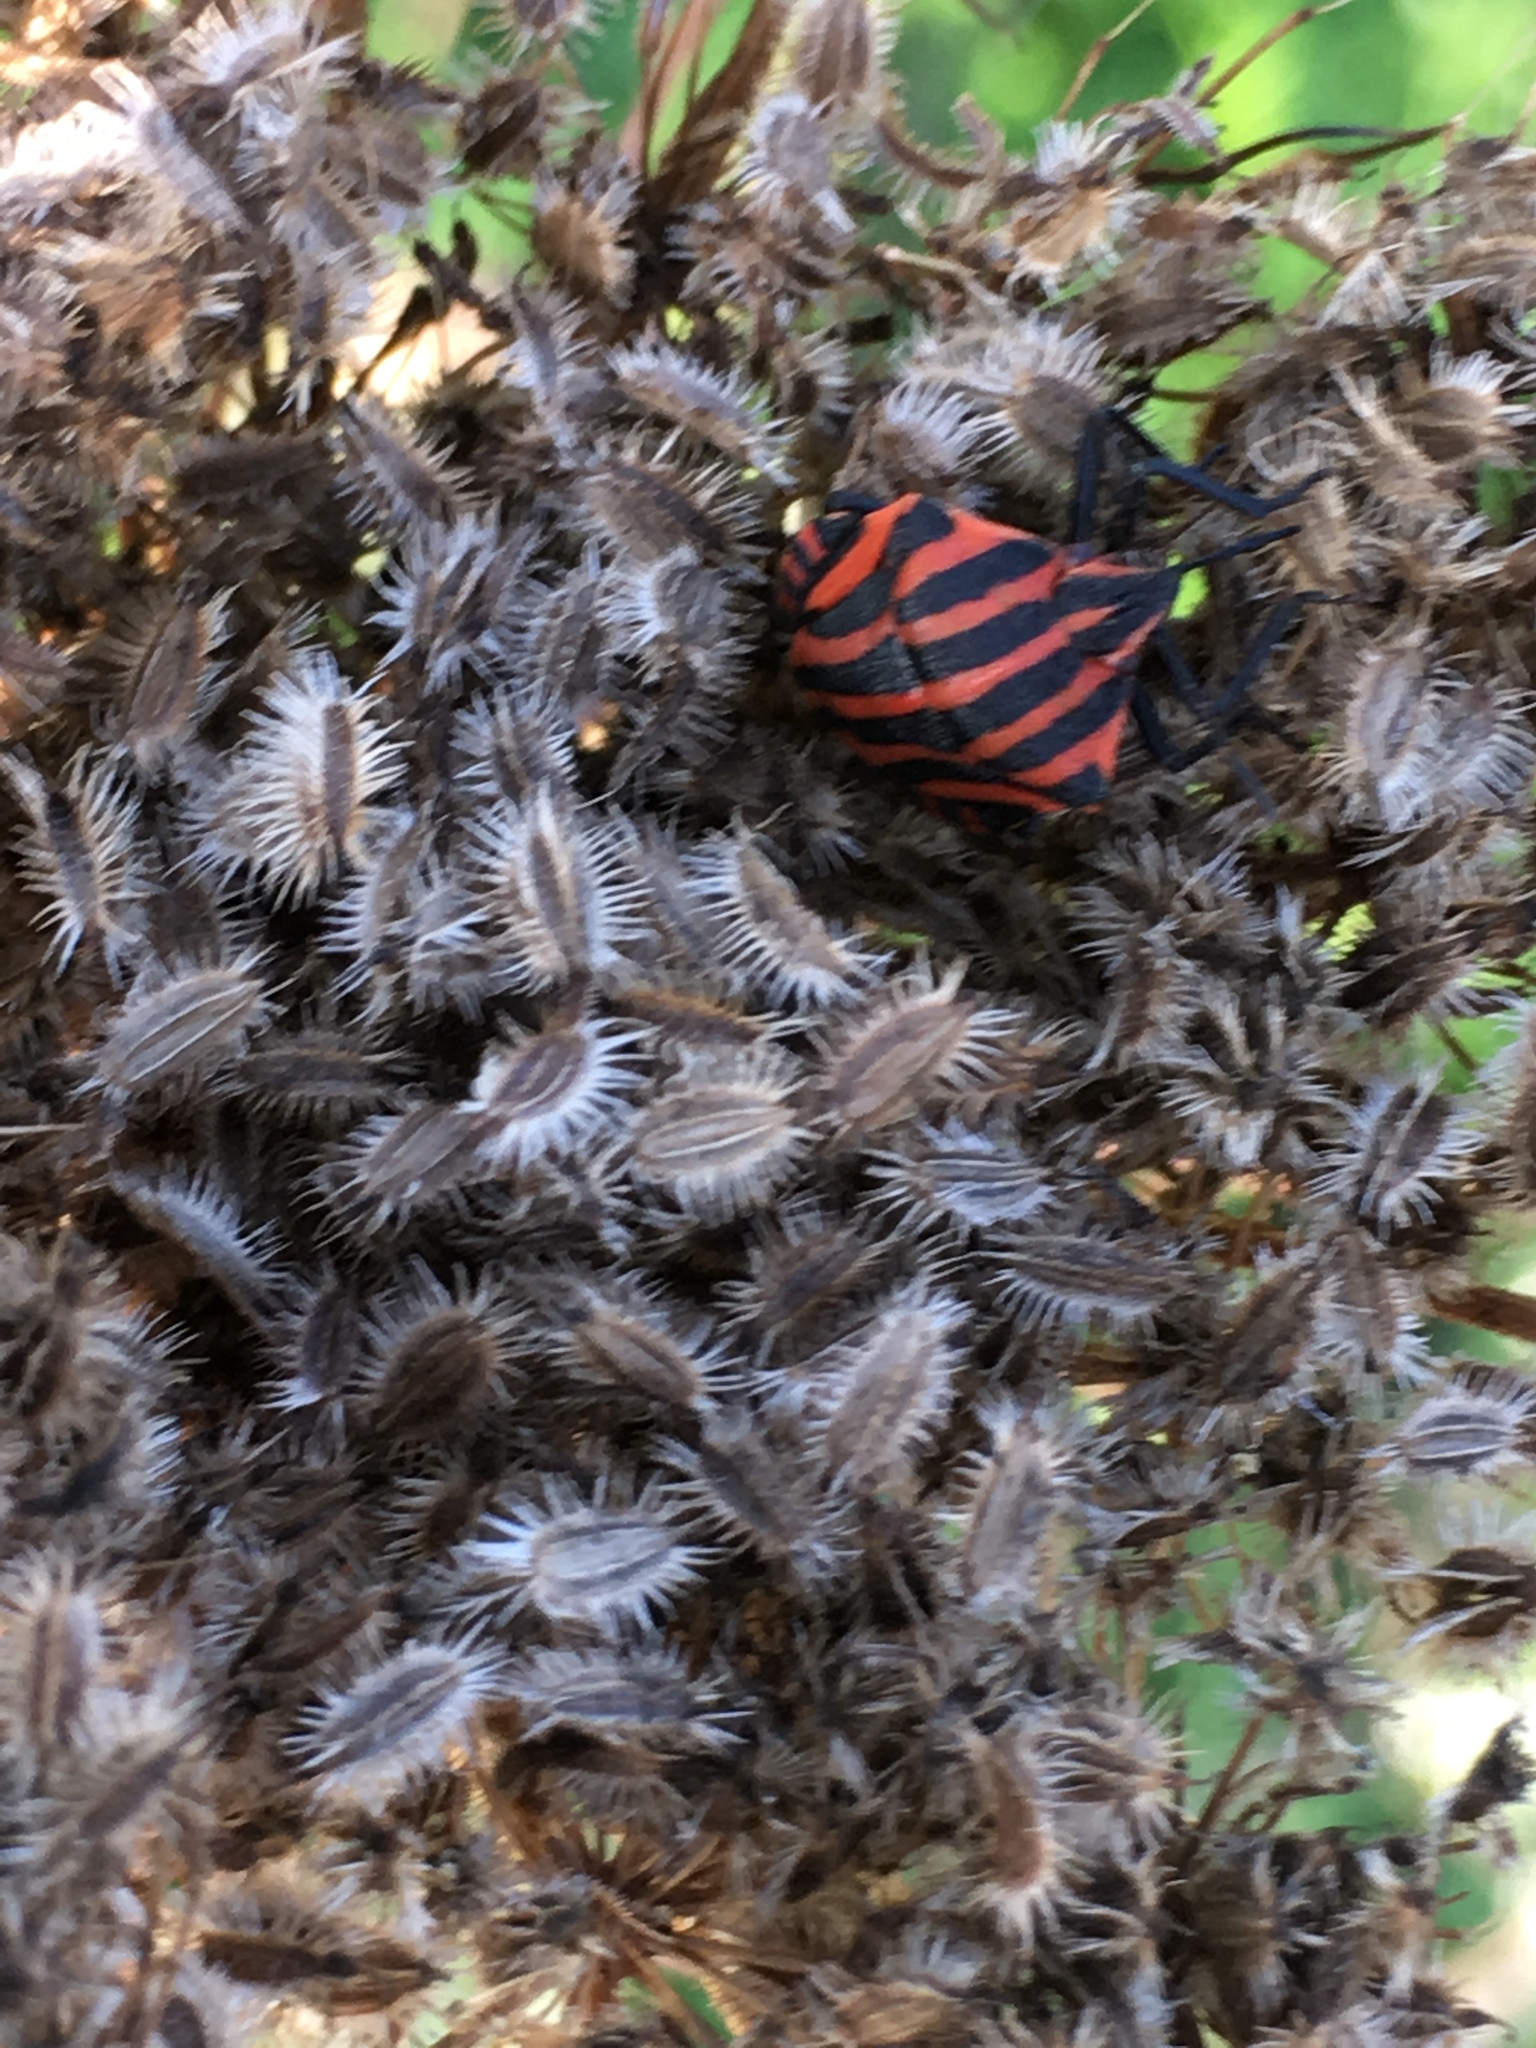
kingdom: Animalia
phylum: Arthropoda
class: Insecta
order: Hemiptera
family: Pentatomidae
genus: Graphosoma
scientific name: Graphosoma italicum
